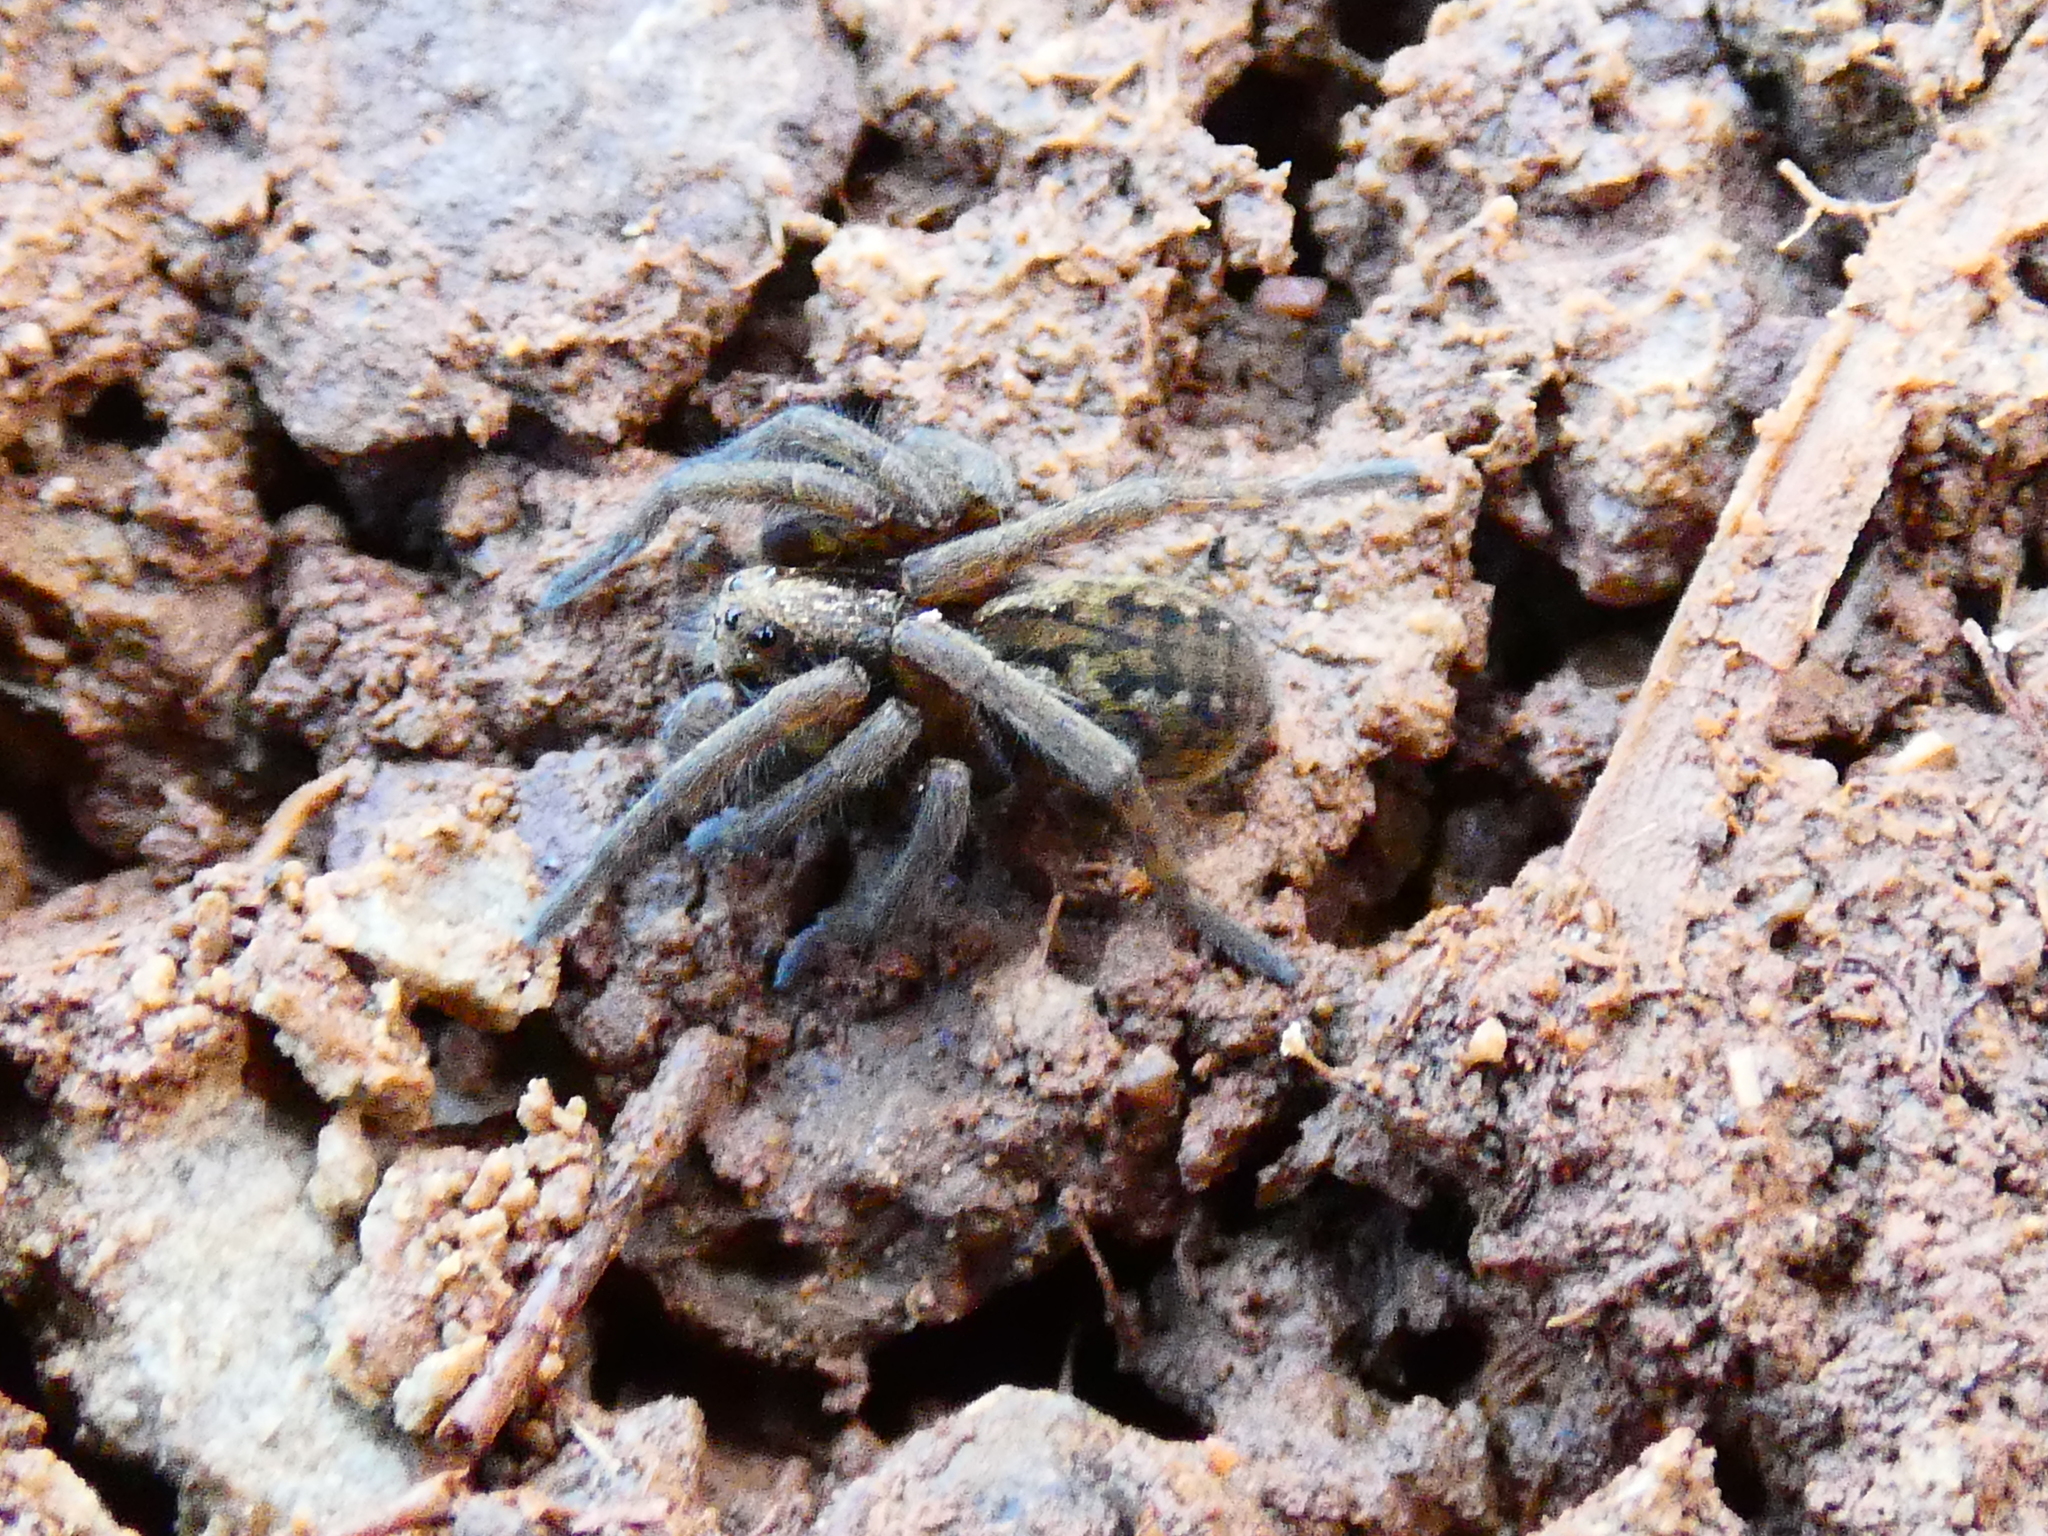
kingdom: Animalia
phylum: Arthropoda
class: Arachnida
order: Araneae
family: Lycosidae
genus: Diapontia
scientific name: Diapontia securifera
